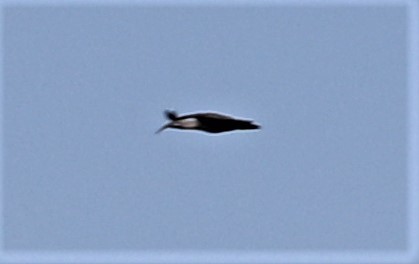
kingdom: Animalia
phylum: Chordata
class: Aves
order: Pelecaniformes
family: Threskiornithidae
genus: Bostrychia
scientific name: Bostrychia hagedash
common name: Hadada ibis
